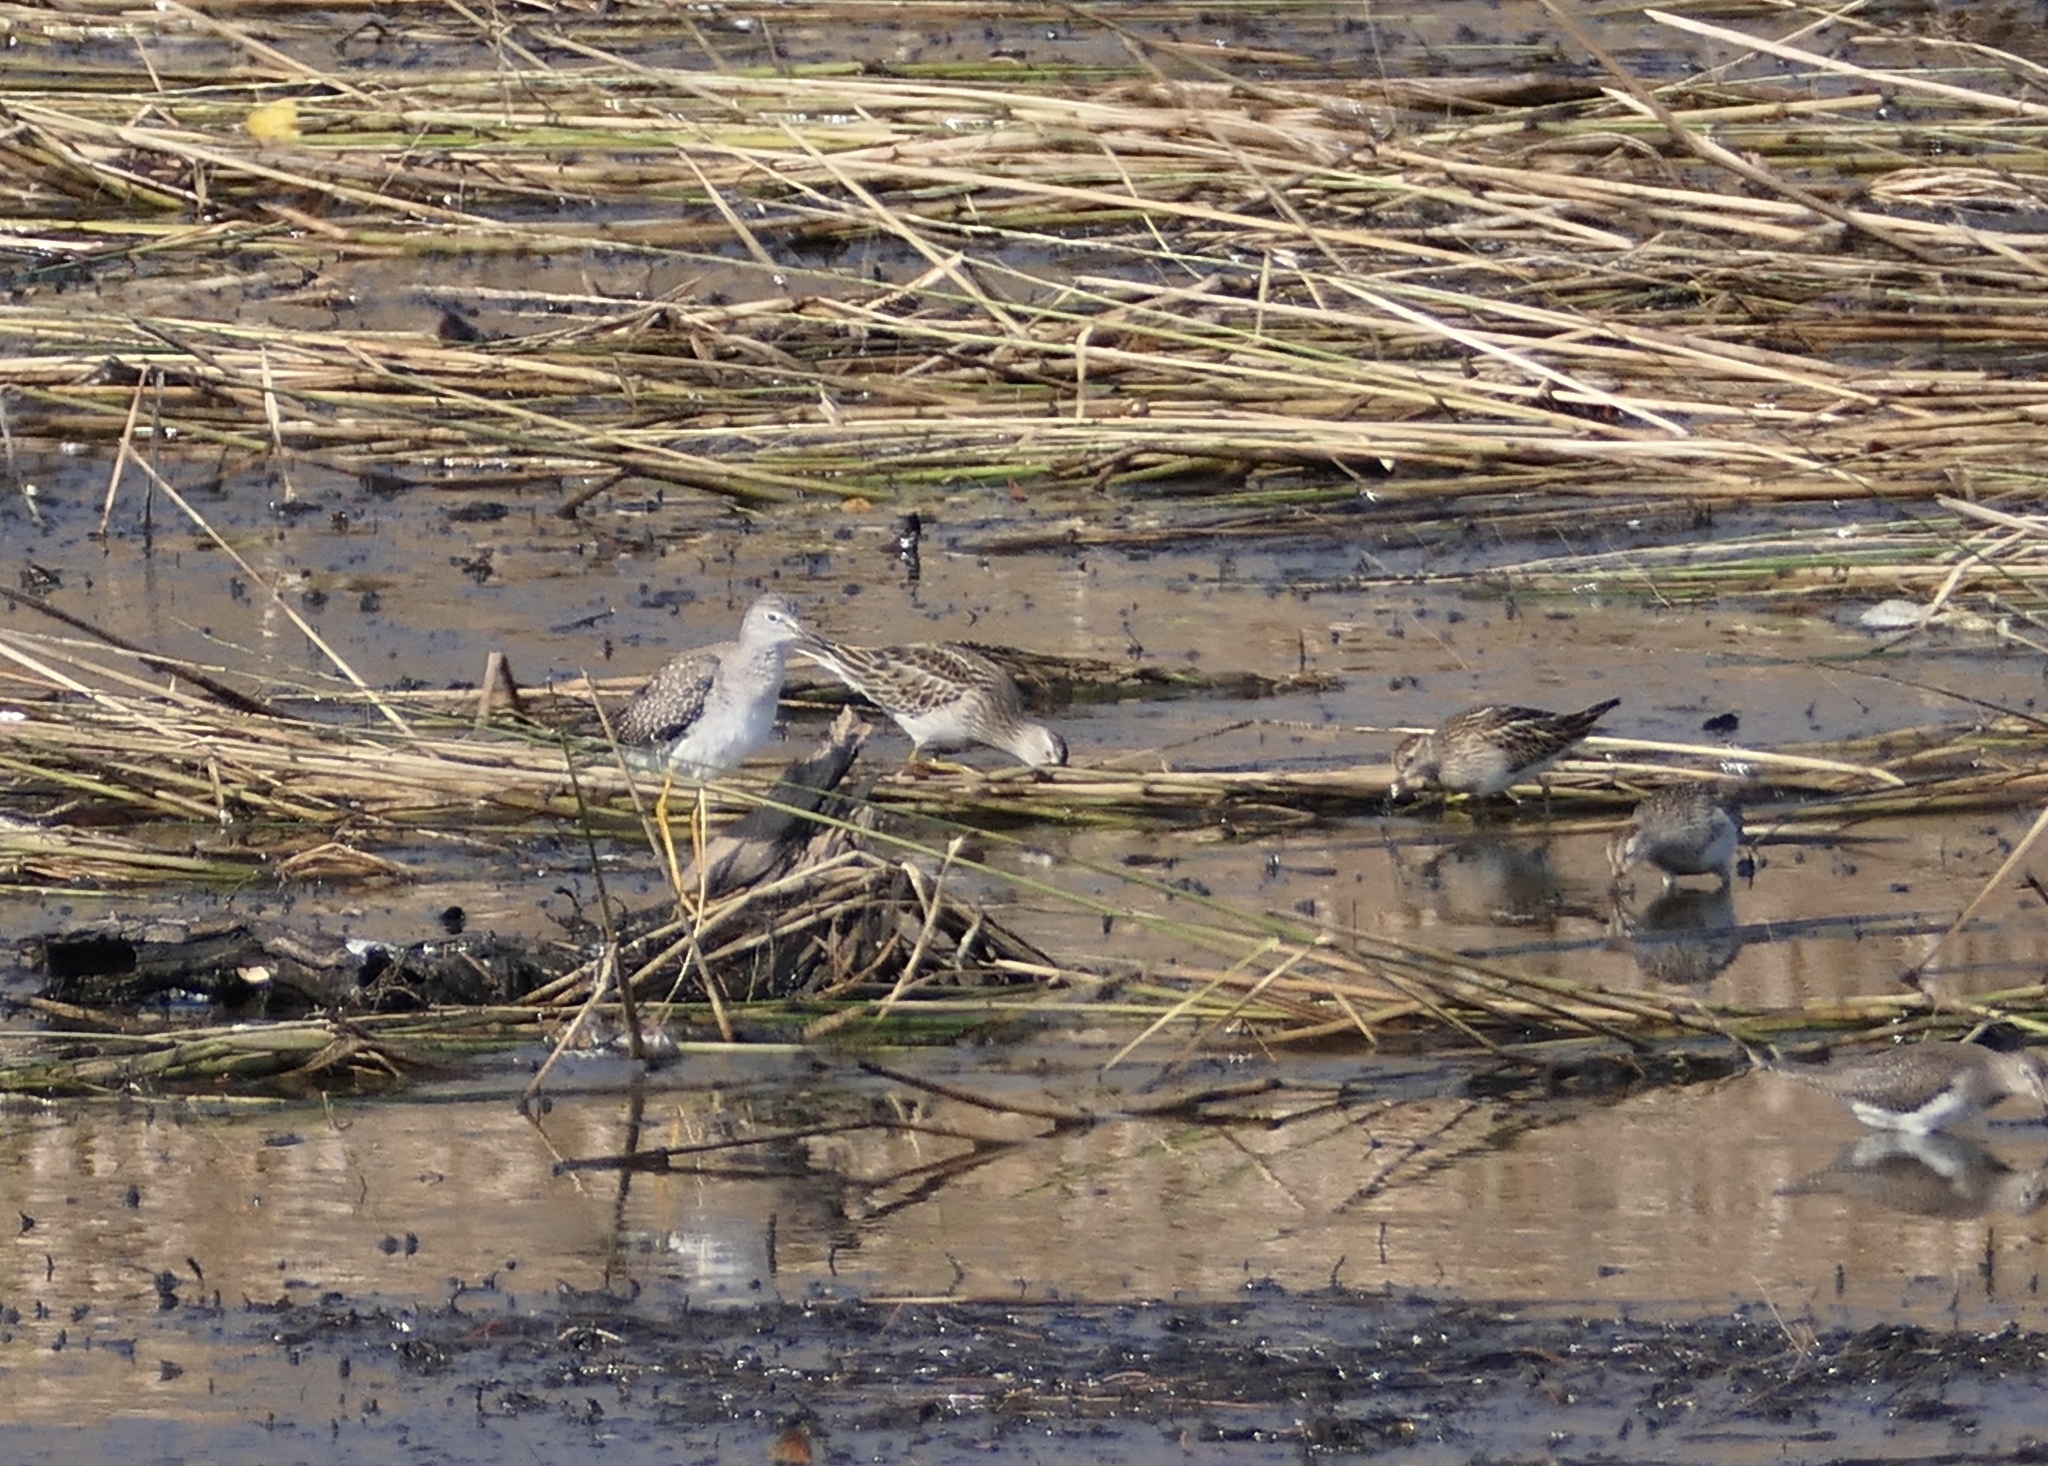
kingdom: Animalia
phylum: Chordata
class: Aves
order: Charadriiformes
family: Scolopacidae
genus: Tringa
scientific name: Tringa melanoleuca
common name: Greater yellowlegs
